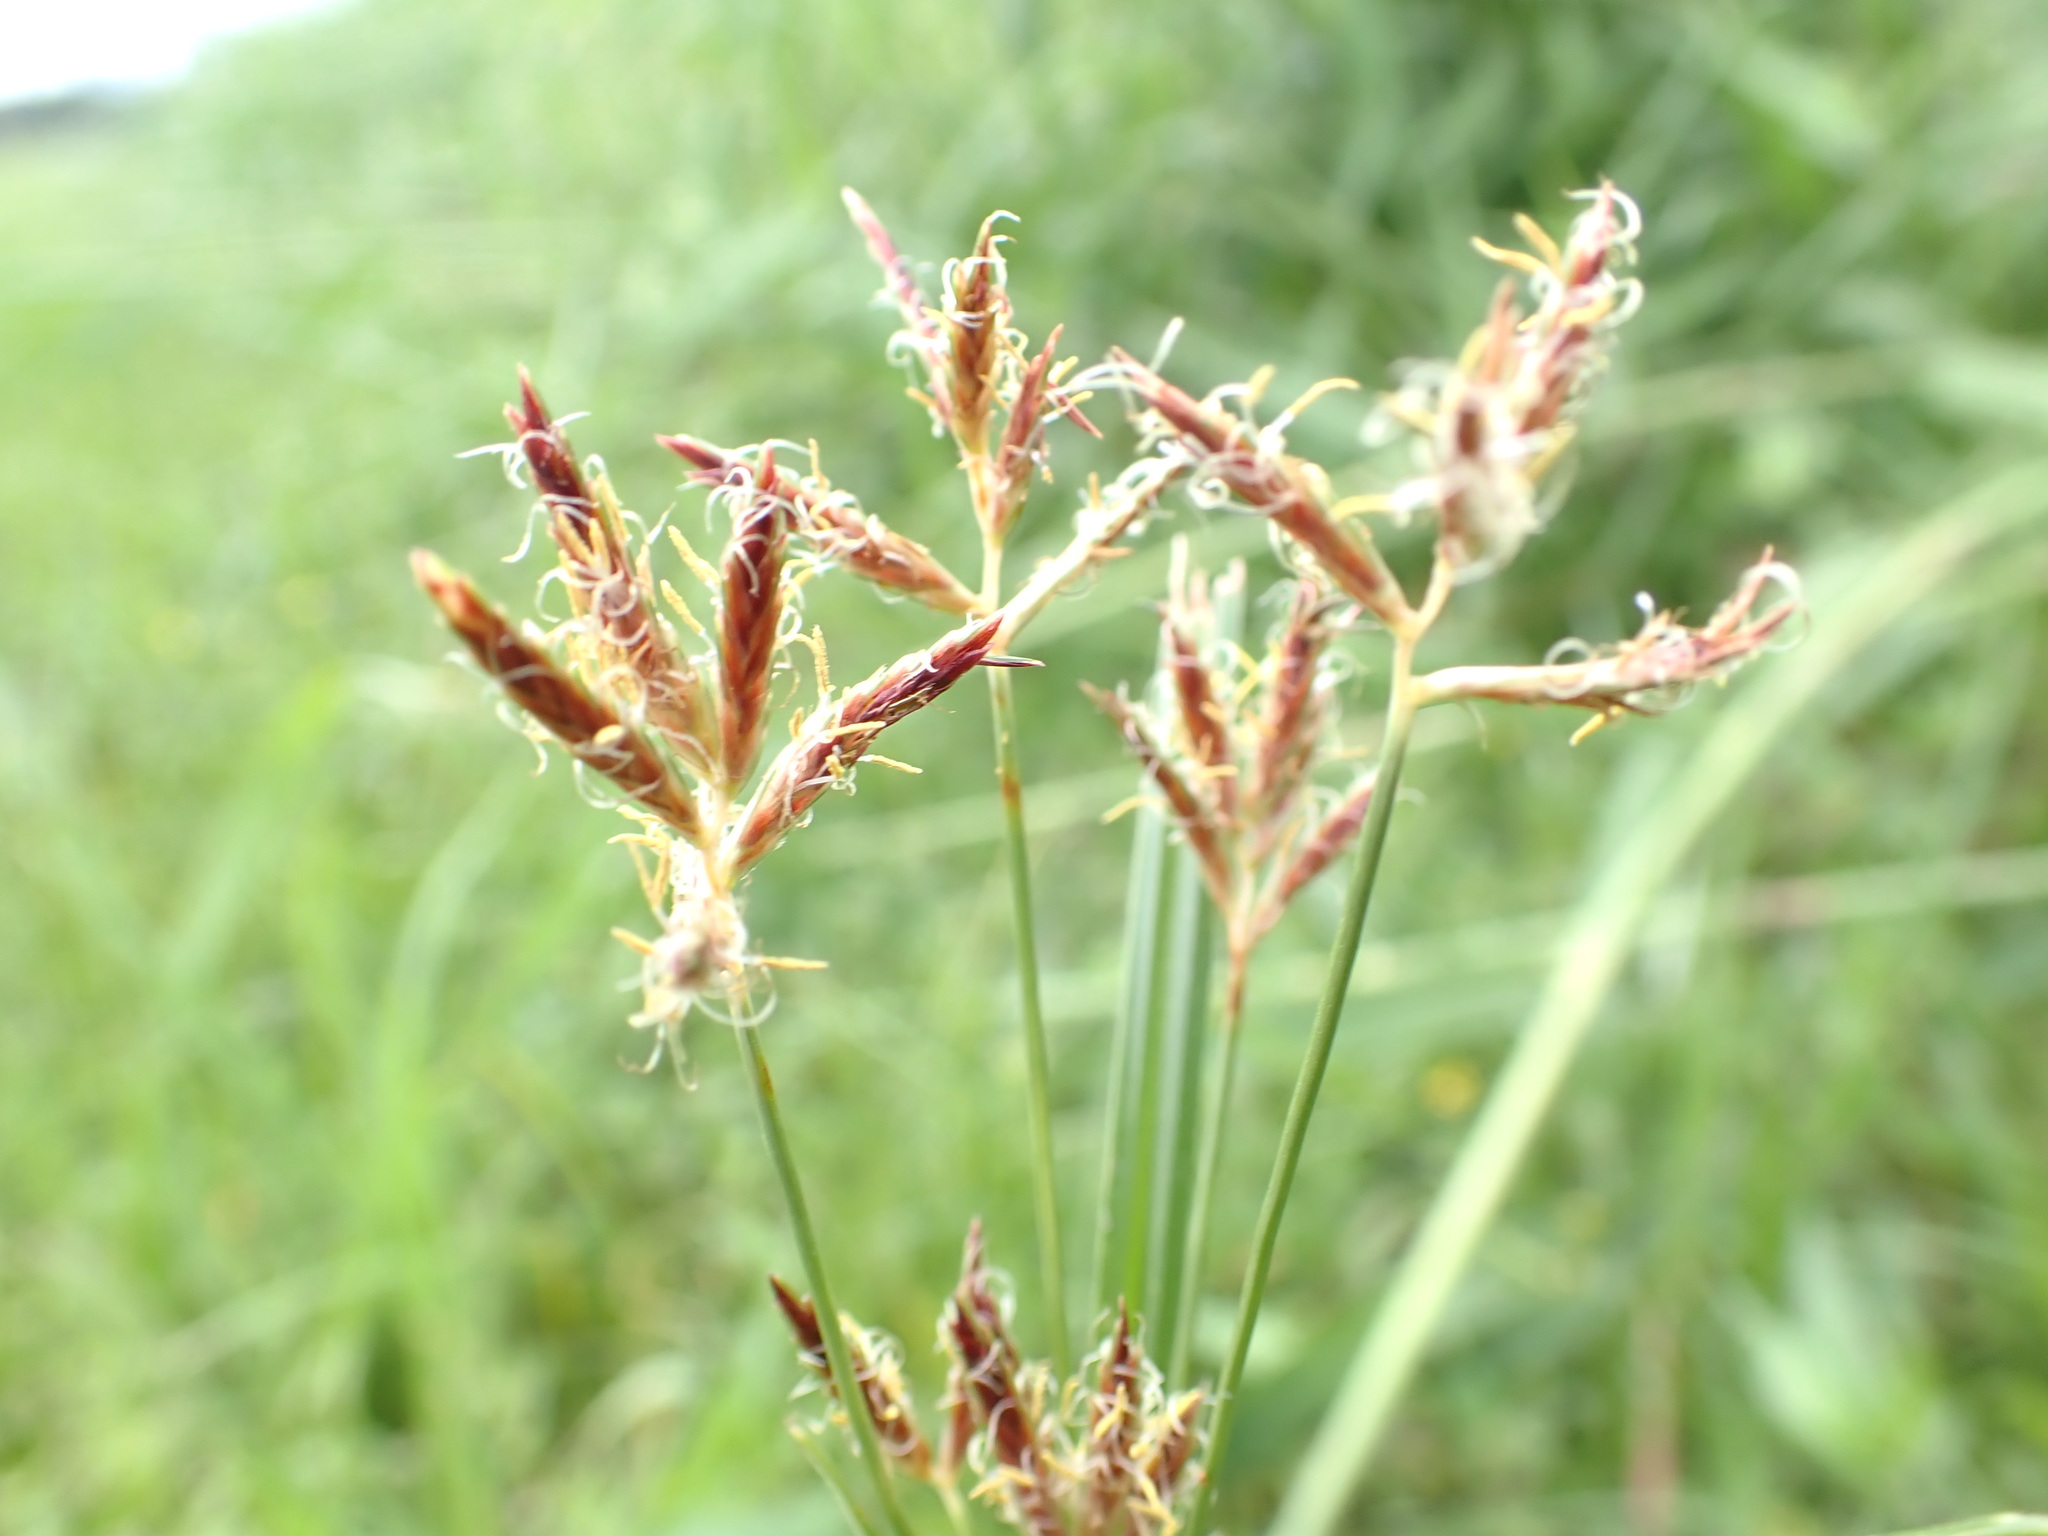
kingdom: Plantae
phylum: Tracheophyta
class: Liliopsida
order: Poales
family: Cyperaceae
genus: Cyperus
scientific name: Cyperus rotundus
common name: Nutgrass
